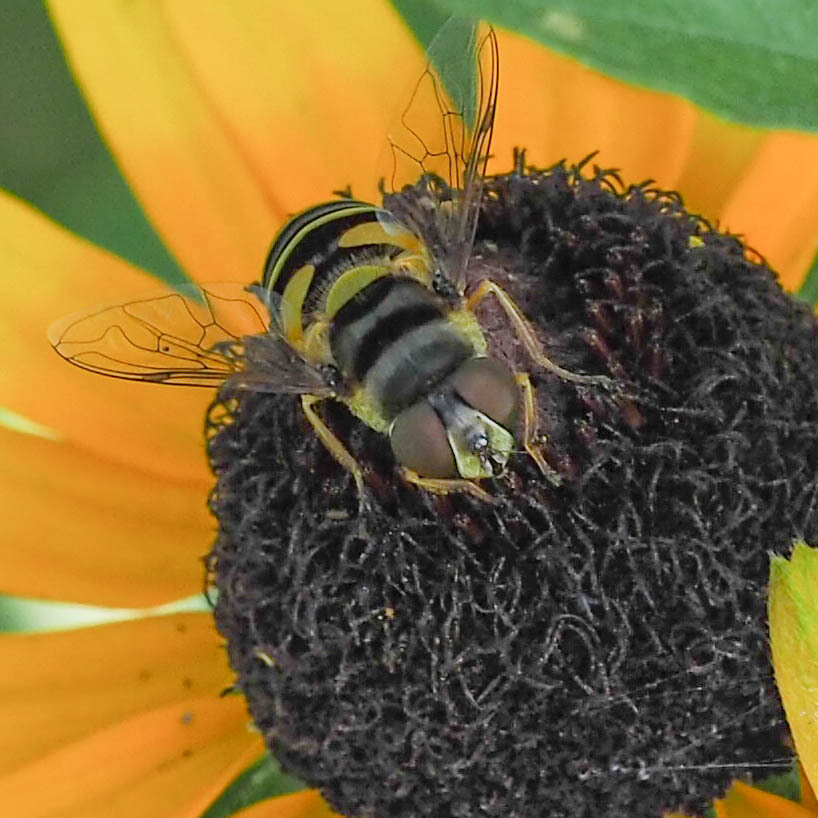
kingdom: Animalia
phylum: Arthropoda
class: Insecta
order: Diptera
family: Syrphidae
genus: Eristalis
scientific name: Eristalis transversa
